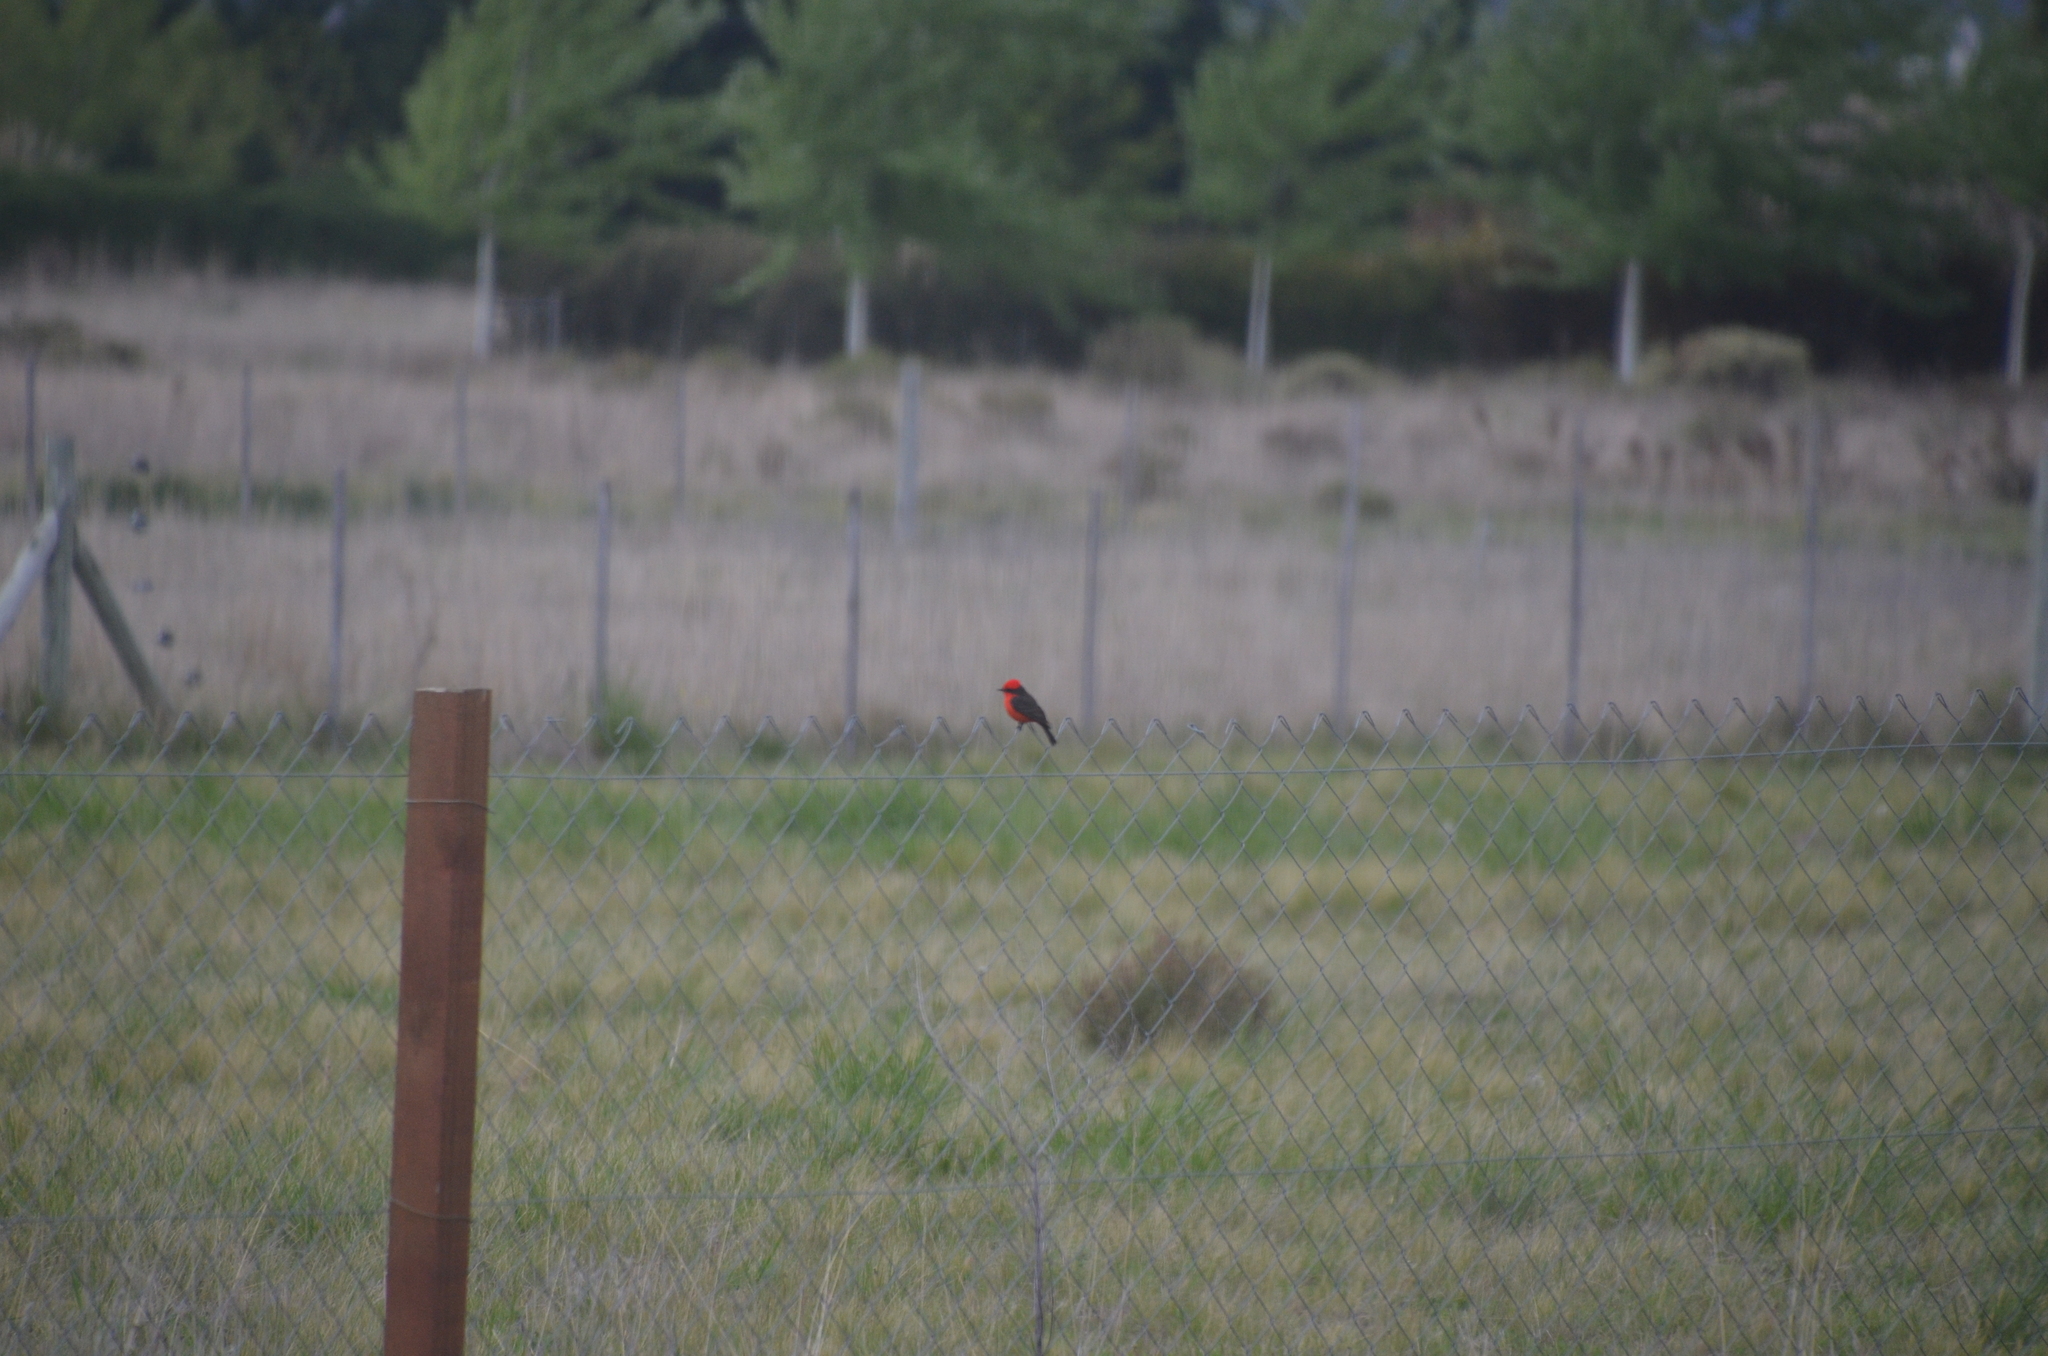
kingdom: Animalia
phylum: Chordata
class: Aves
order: Passeriformes
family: Tyrannidae
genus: Pyrocephalus
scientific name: Pyrocephalus rubinus
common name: Vermilion flycatcher
